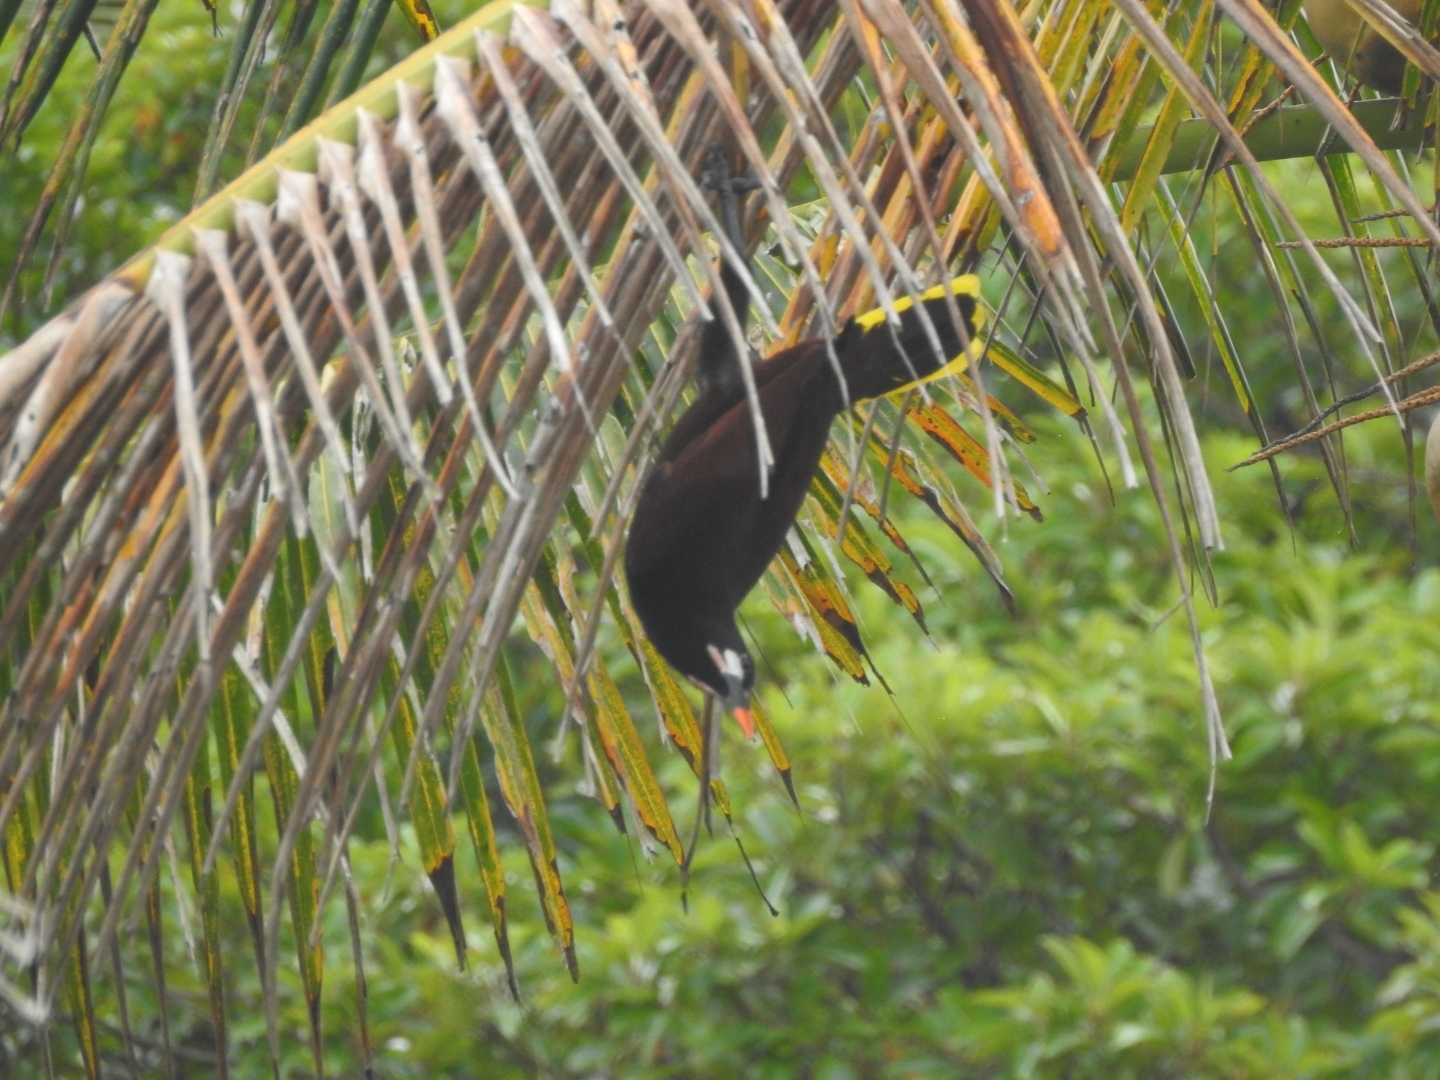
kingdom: Animalia
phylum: Chordata
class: Aves
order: Passeriformes
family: Icteridae
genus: Psarocolius
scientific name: Psarocolius montezuma
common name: Montezuma oropendola
